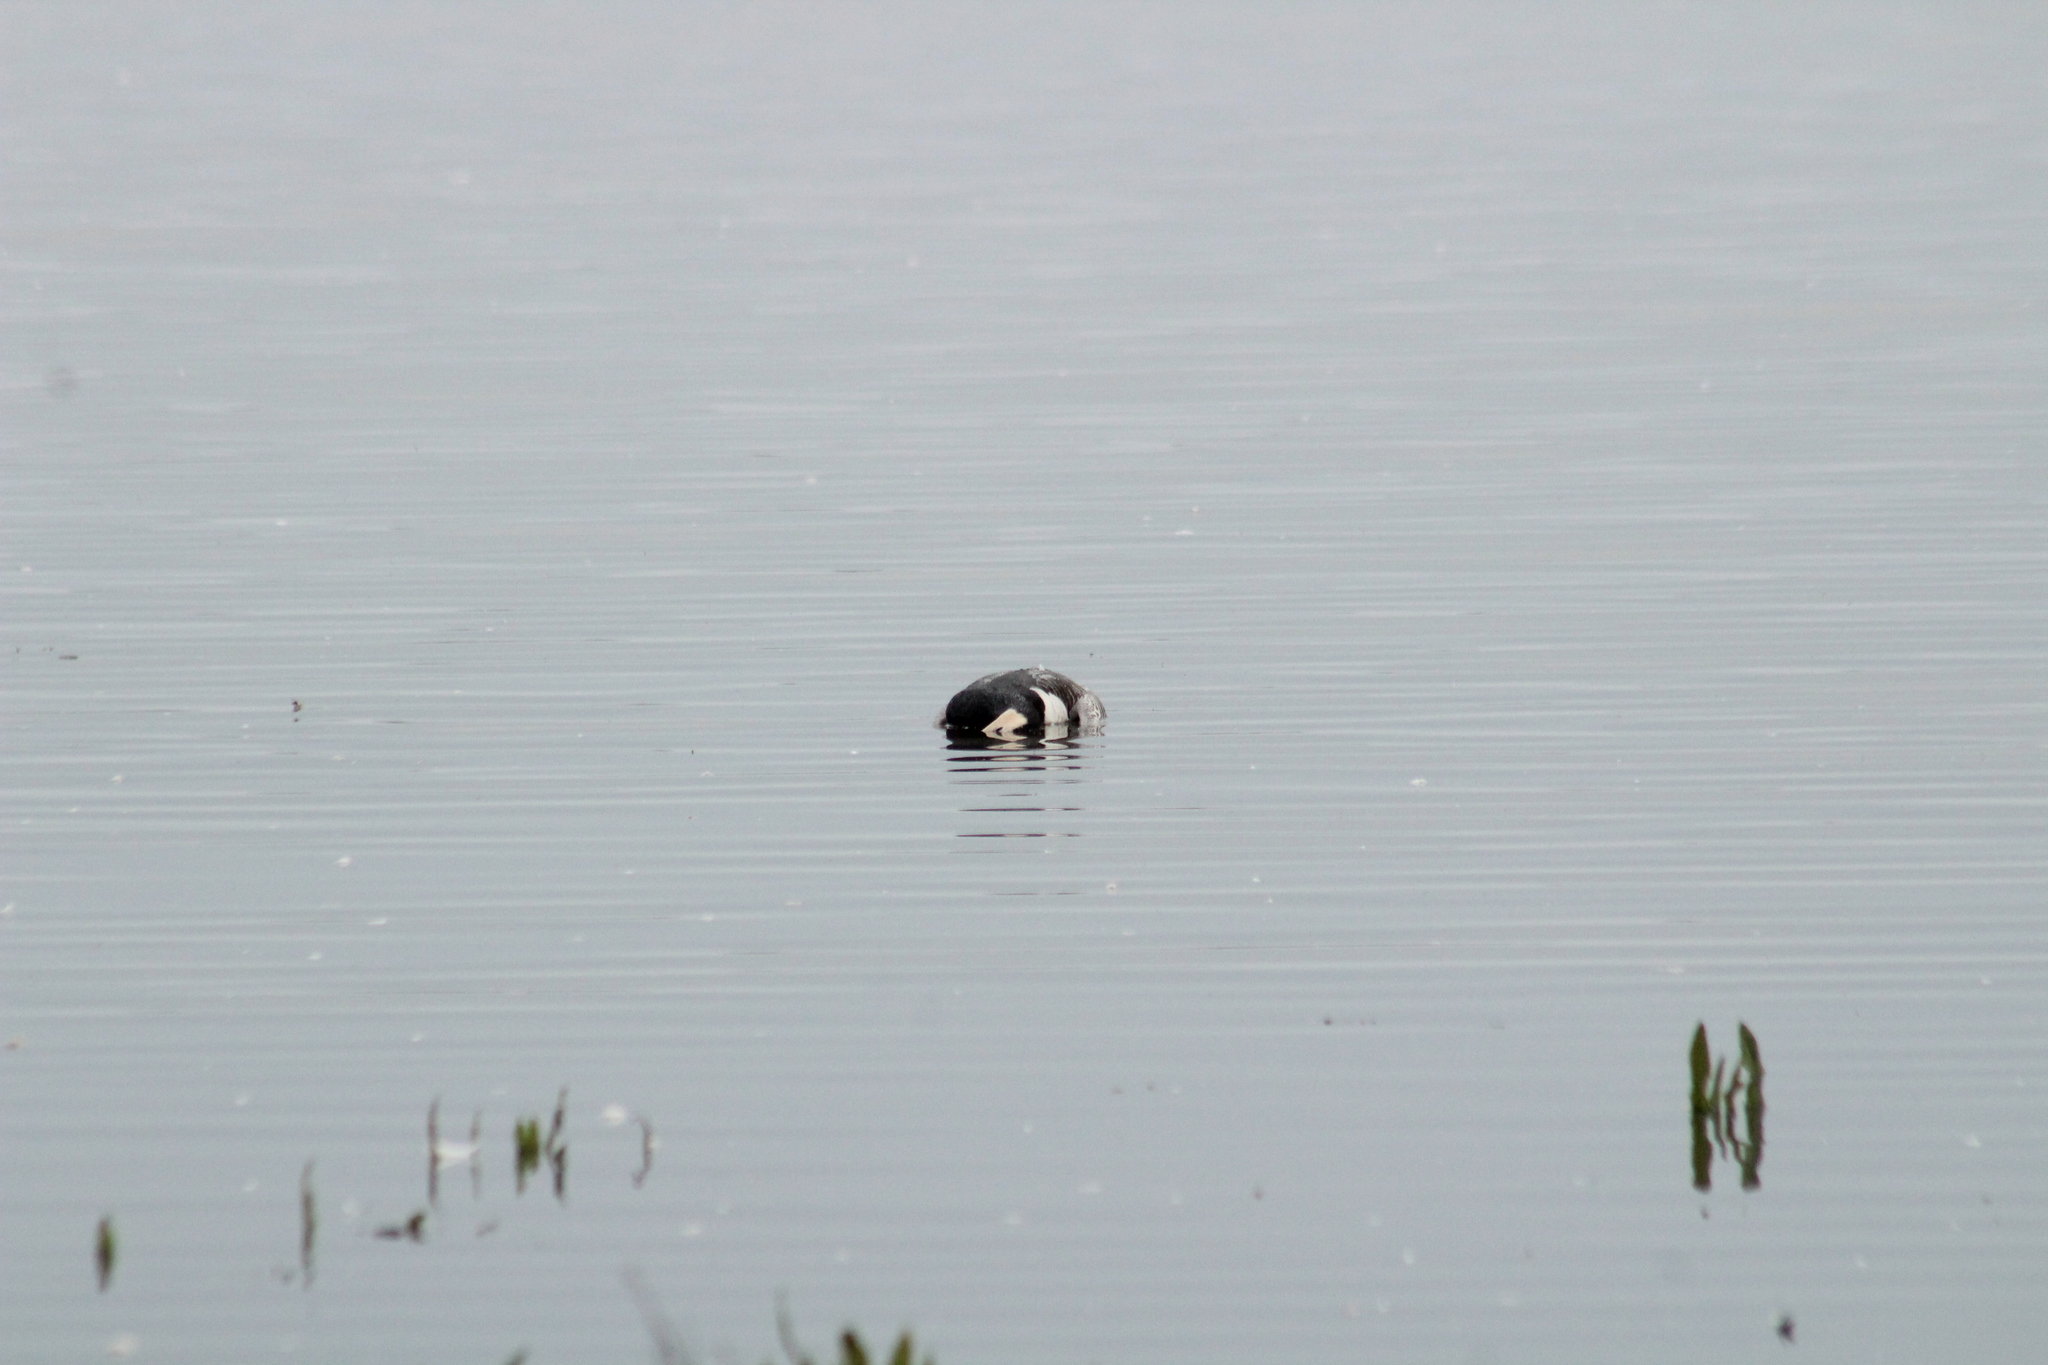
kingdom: Animalia
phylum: Chordata
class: Aves
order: Anseriformes
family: Anatidae
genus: Branta
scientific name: Branta leucopsis
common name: Barnacle goose
